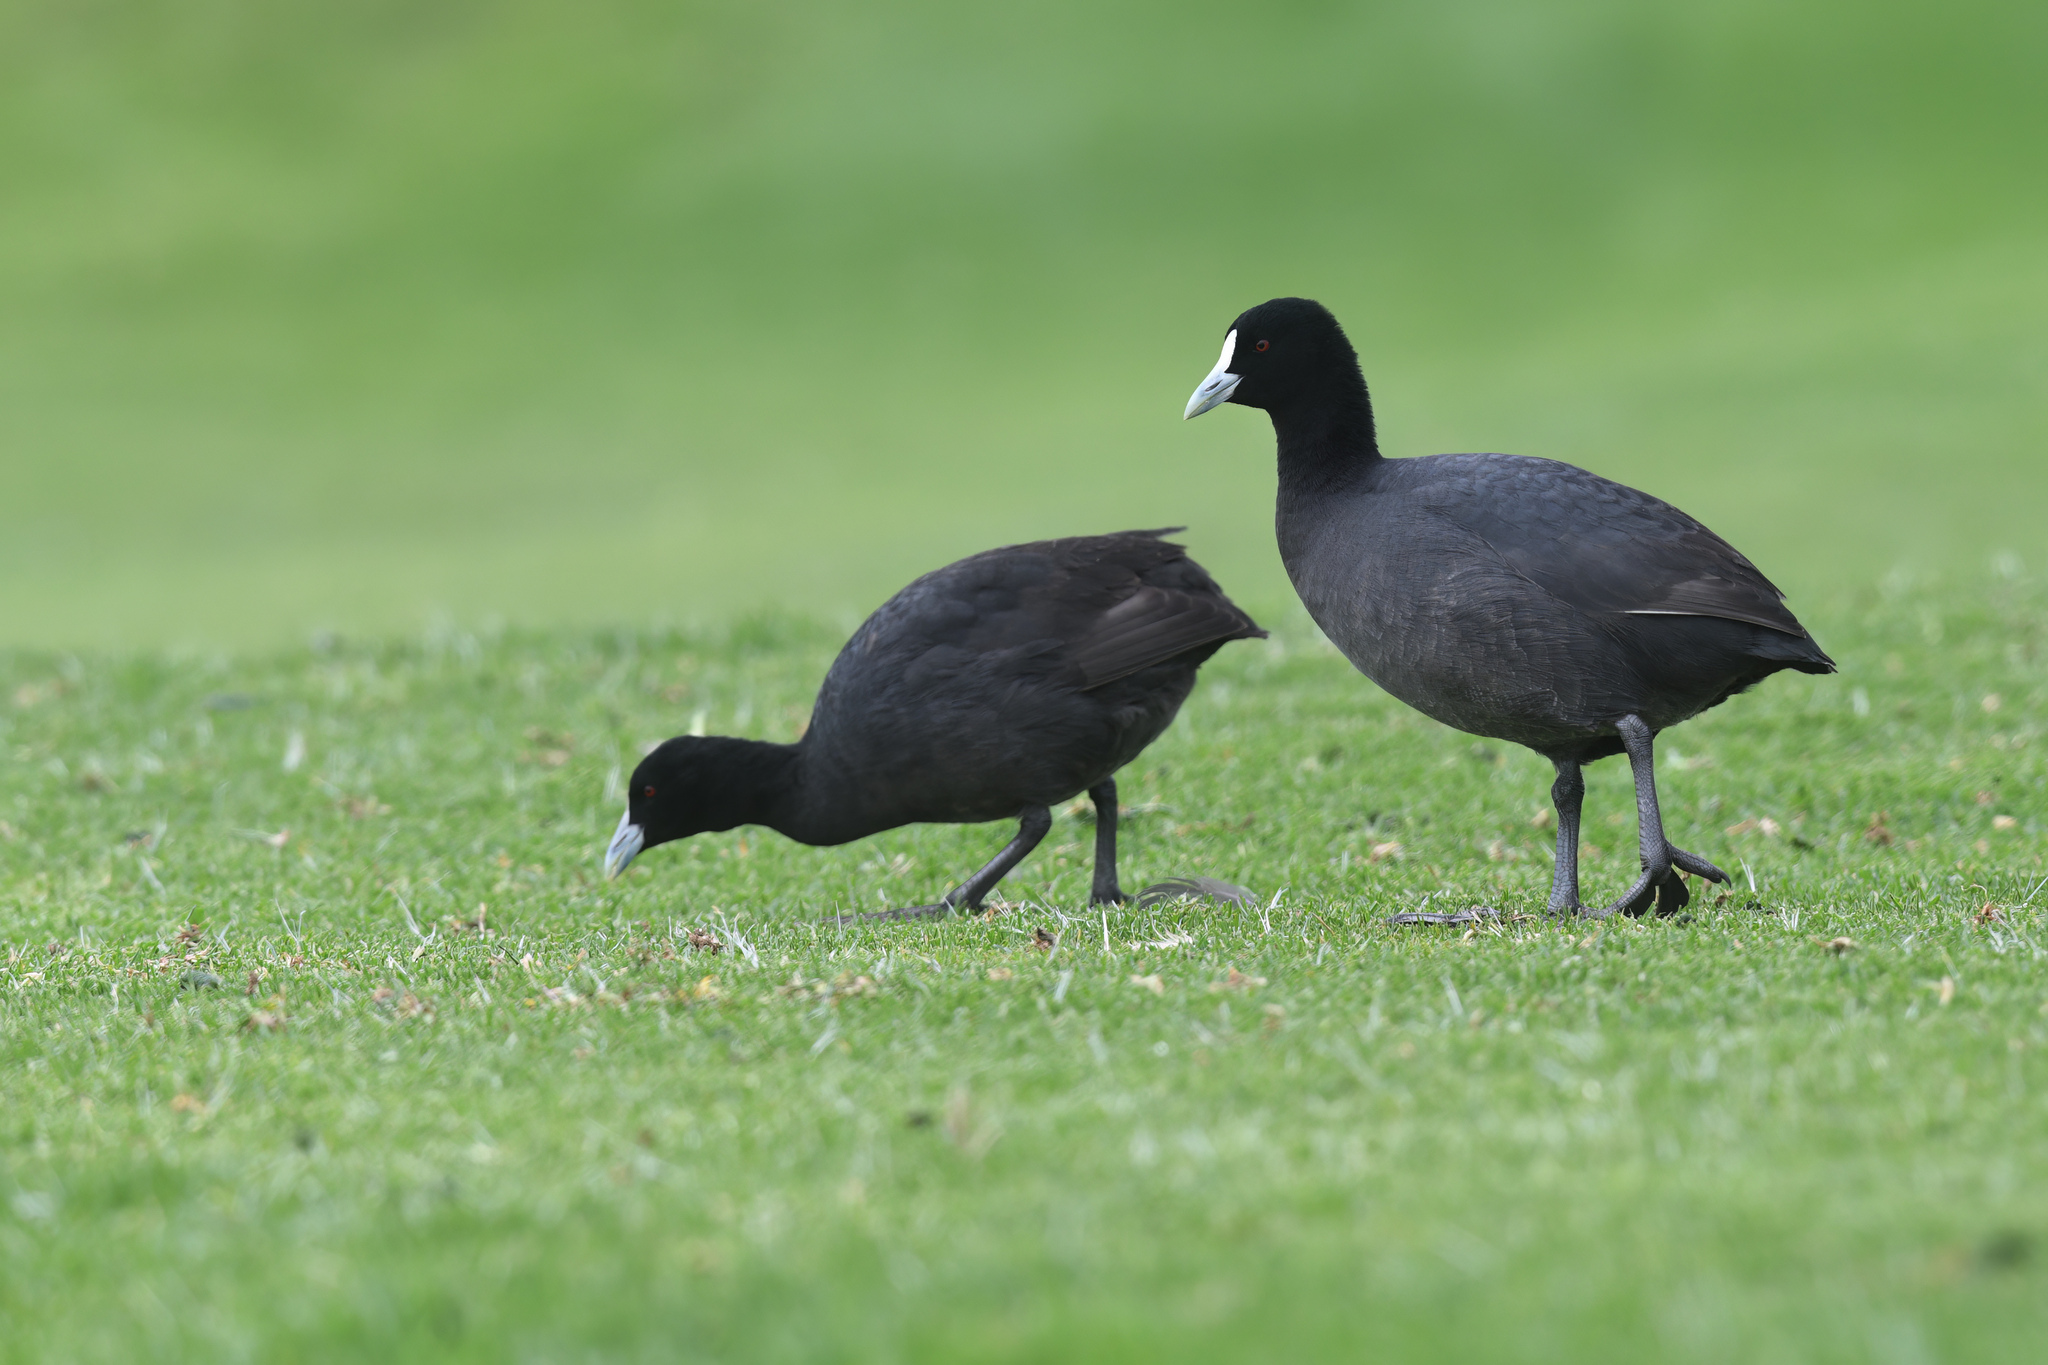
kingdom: Animalia
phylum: Chordata
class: Aves
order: Gruiformes
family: Rallidae
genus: Fulica
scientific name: Fulica atra
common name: Eurasian coot
